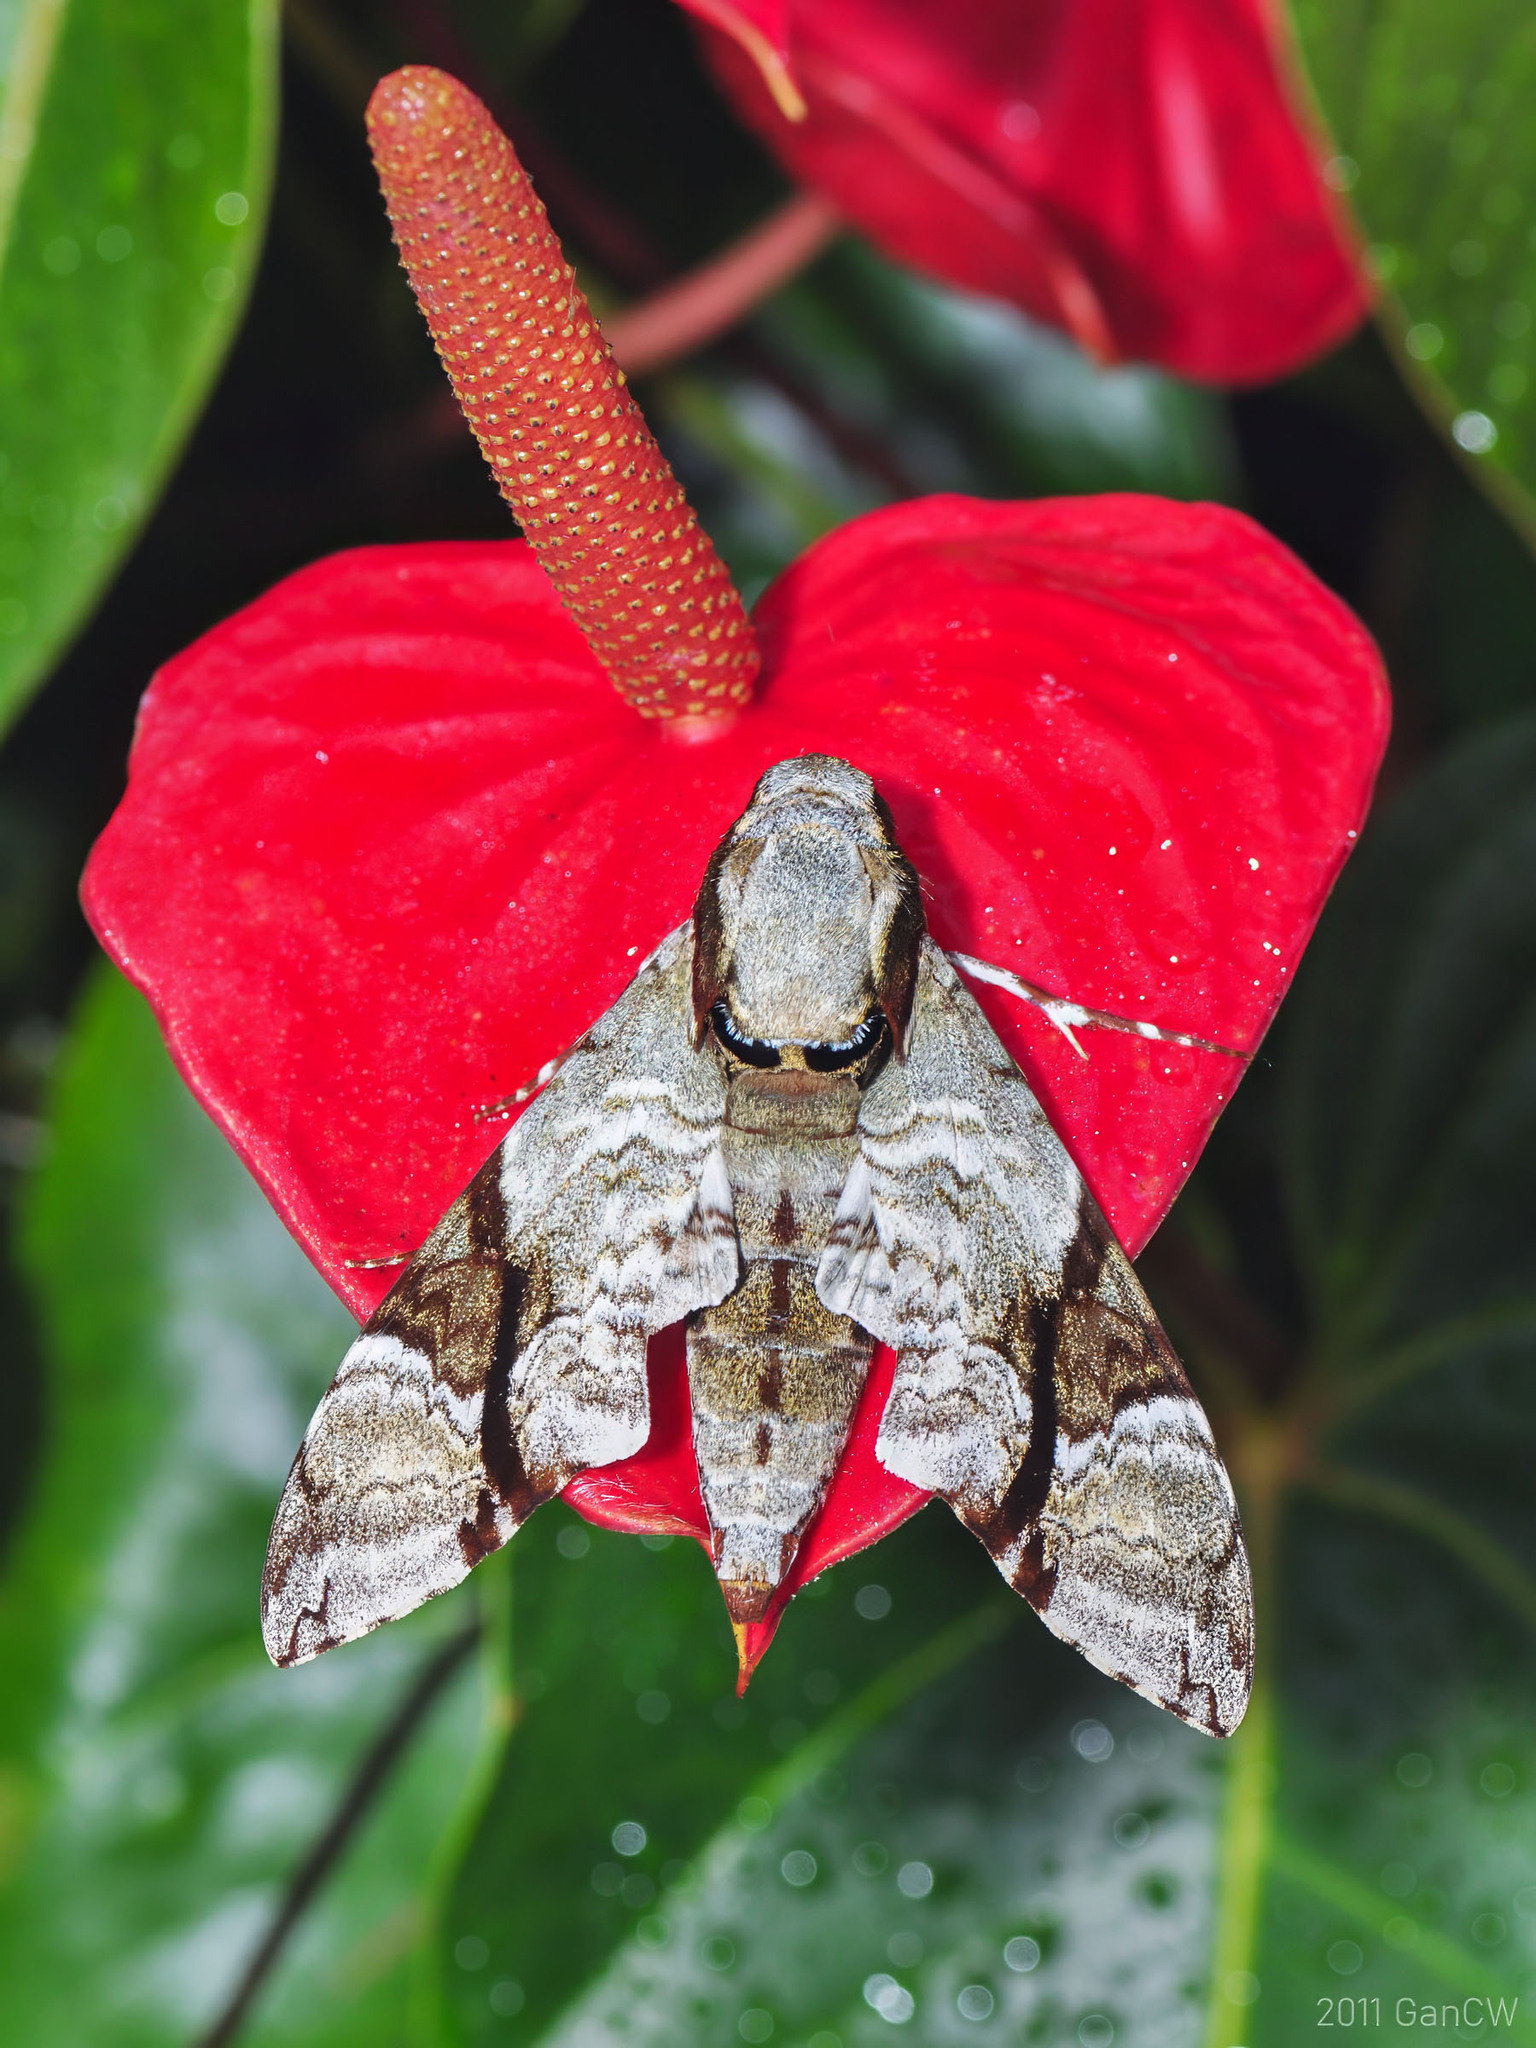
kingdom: Animalia
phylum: Arthropoda
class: Insecta
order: Lepidoptera
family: Sphingidae
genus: Megacorma
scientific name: Megacorma obliqua
